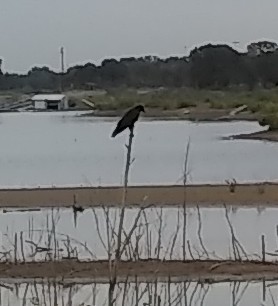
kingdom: Animalia
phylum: Chordata
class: Aves
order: Passeriformes
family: Corvidae
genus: Corvus
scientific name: Corvus brachyrhynchos
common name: American crow
